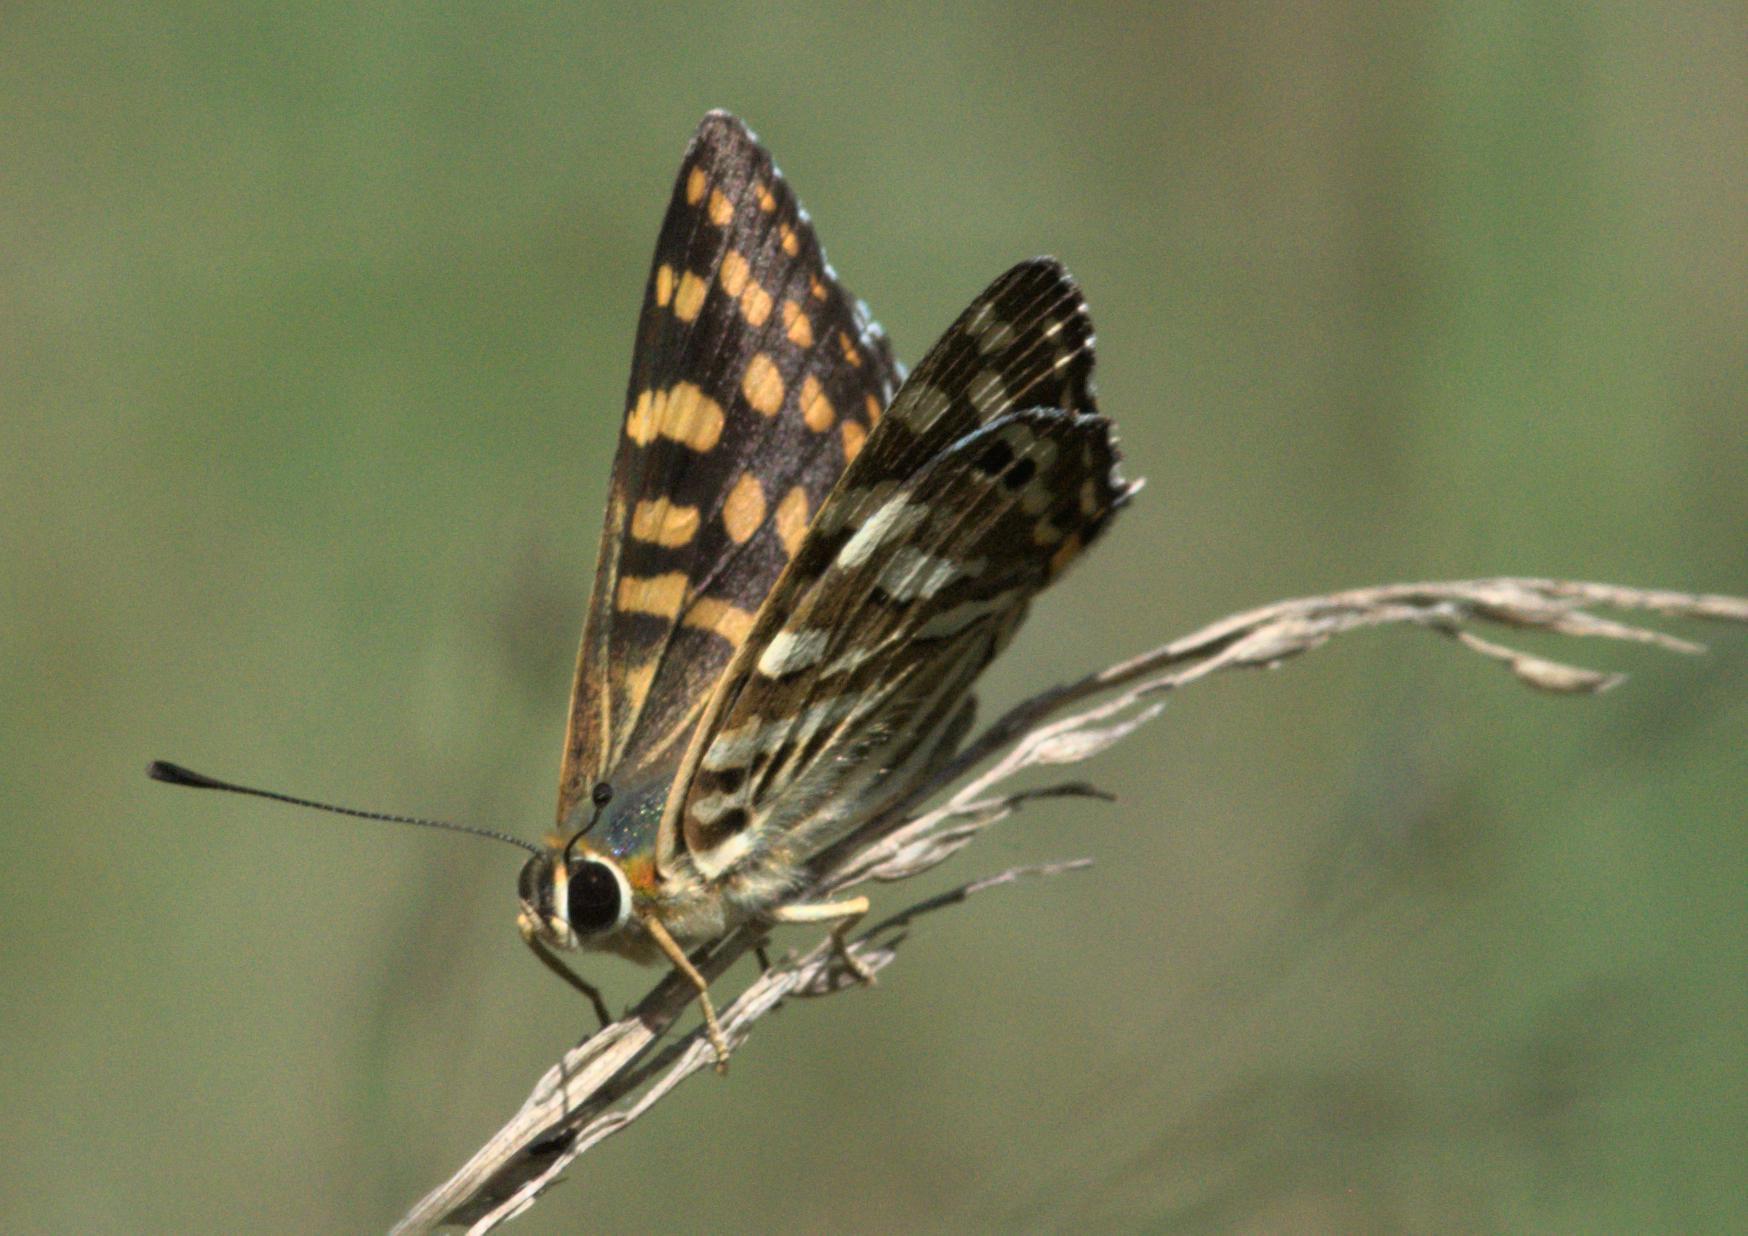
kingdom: Animalia
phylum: Arthropoda
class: Insecta
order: Lepidoptera
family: Lycaenidae
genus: Dodona
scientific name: Dodona durga
